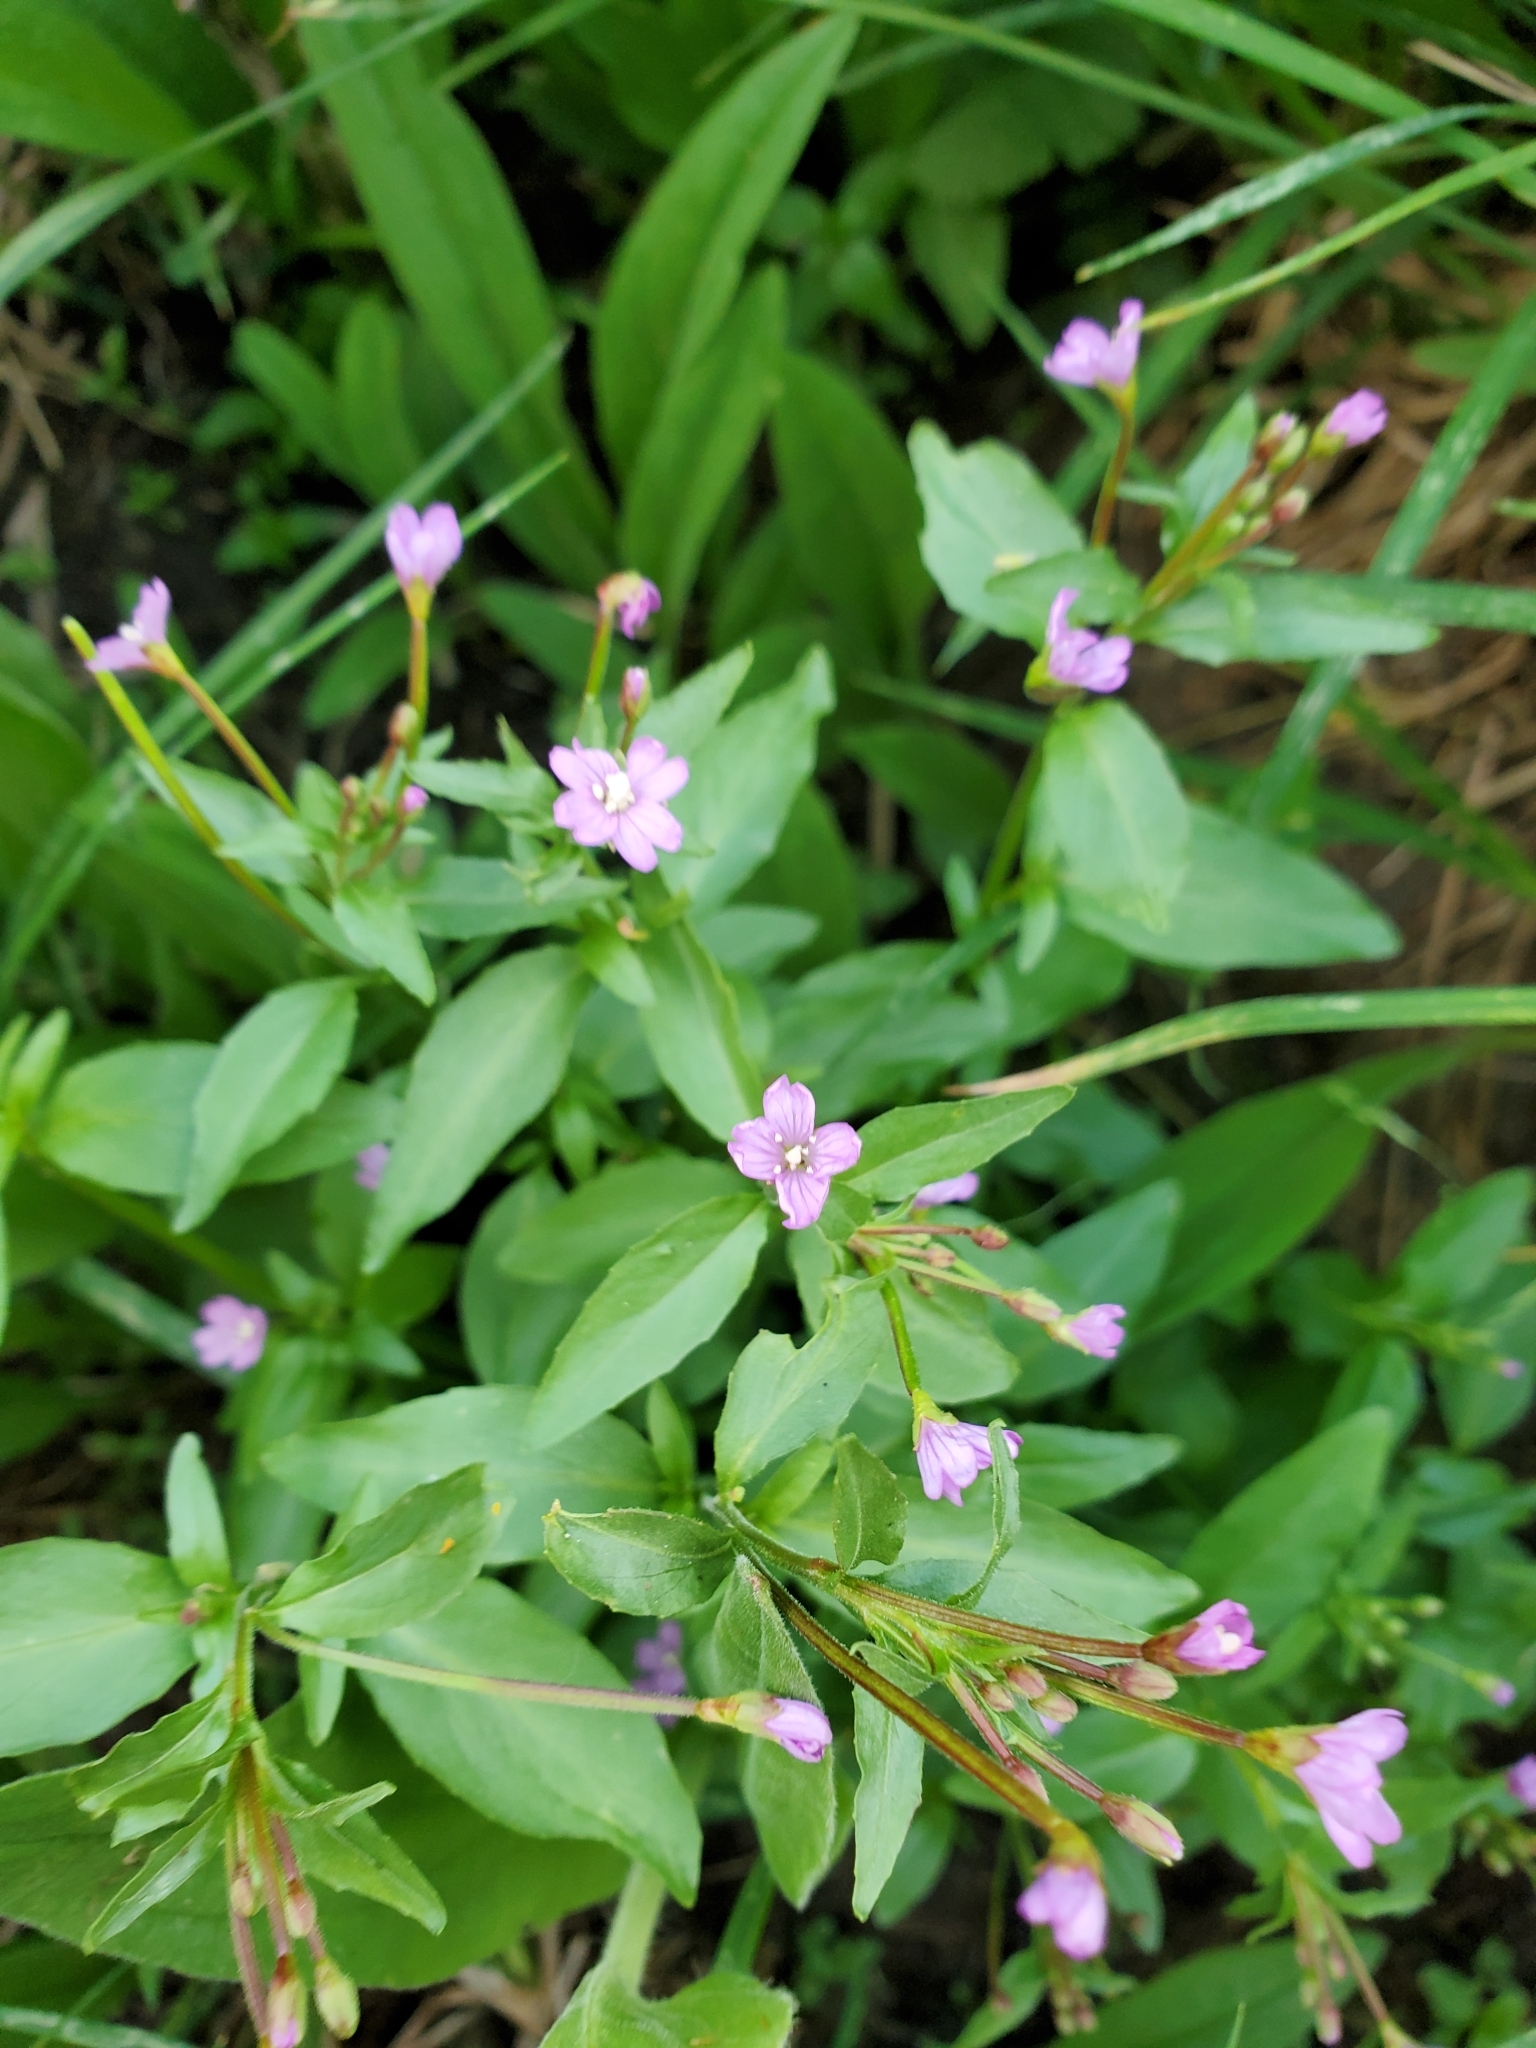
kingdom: Plantae
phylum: Tracheophyta
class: Magnoliopsida
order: Myrtales
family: Onagraceae
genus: Epilobium
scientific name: Epilobium hornemannii
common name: Hornemann's willowherb
